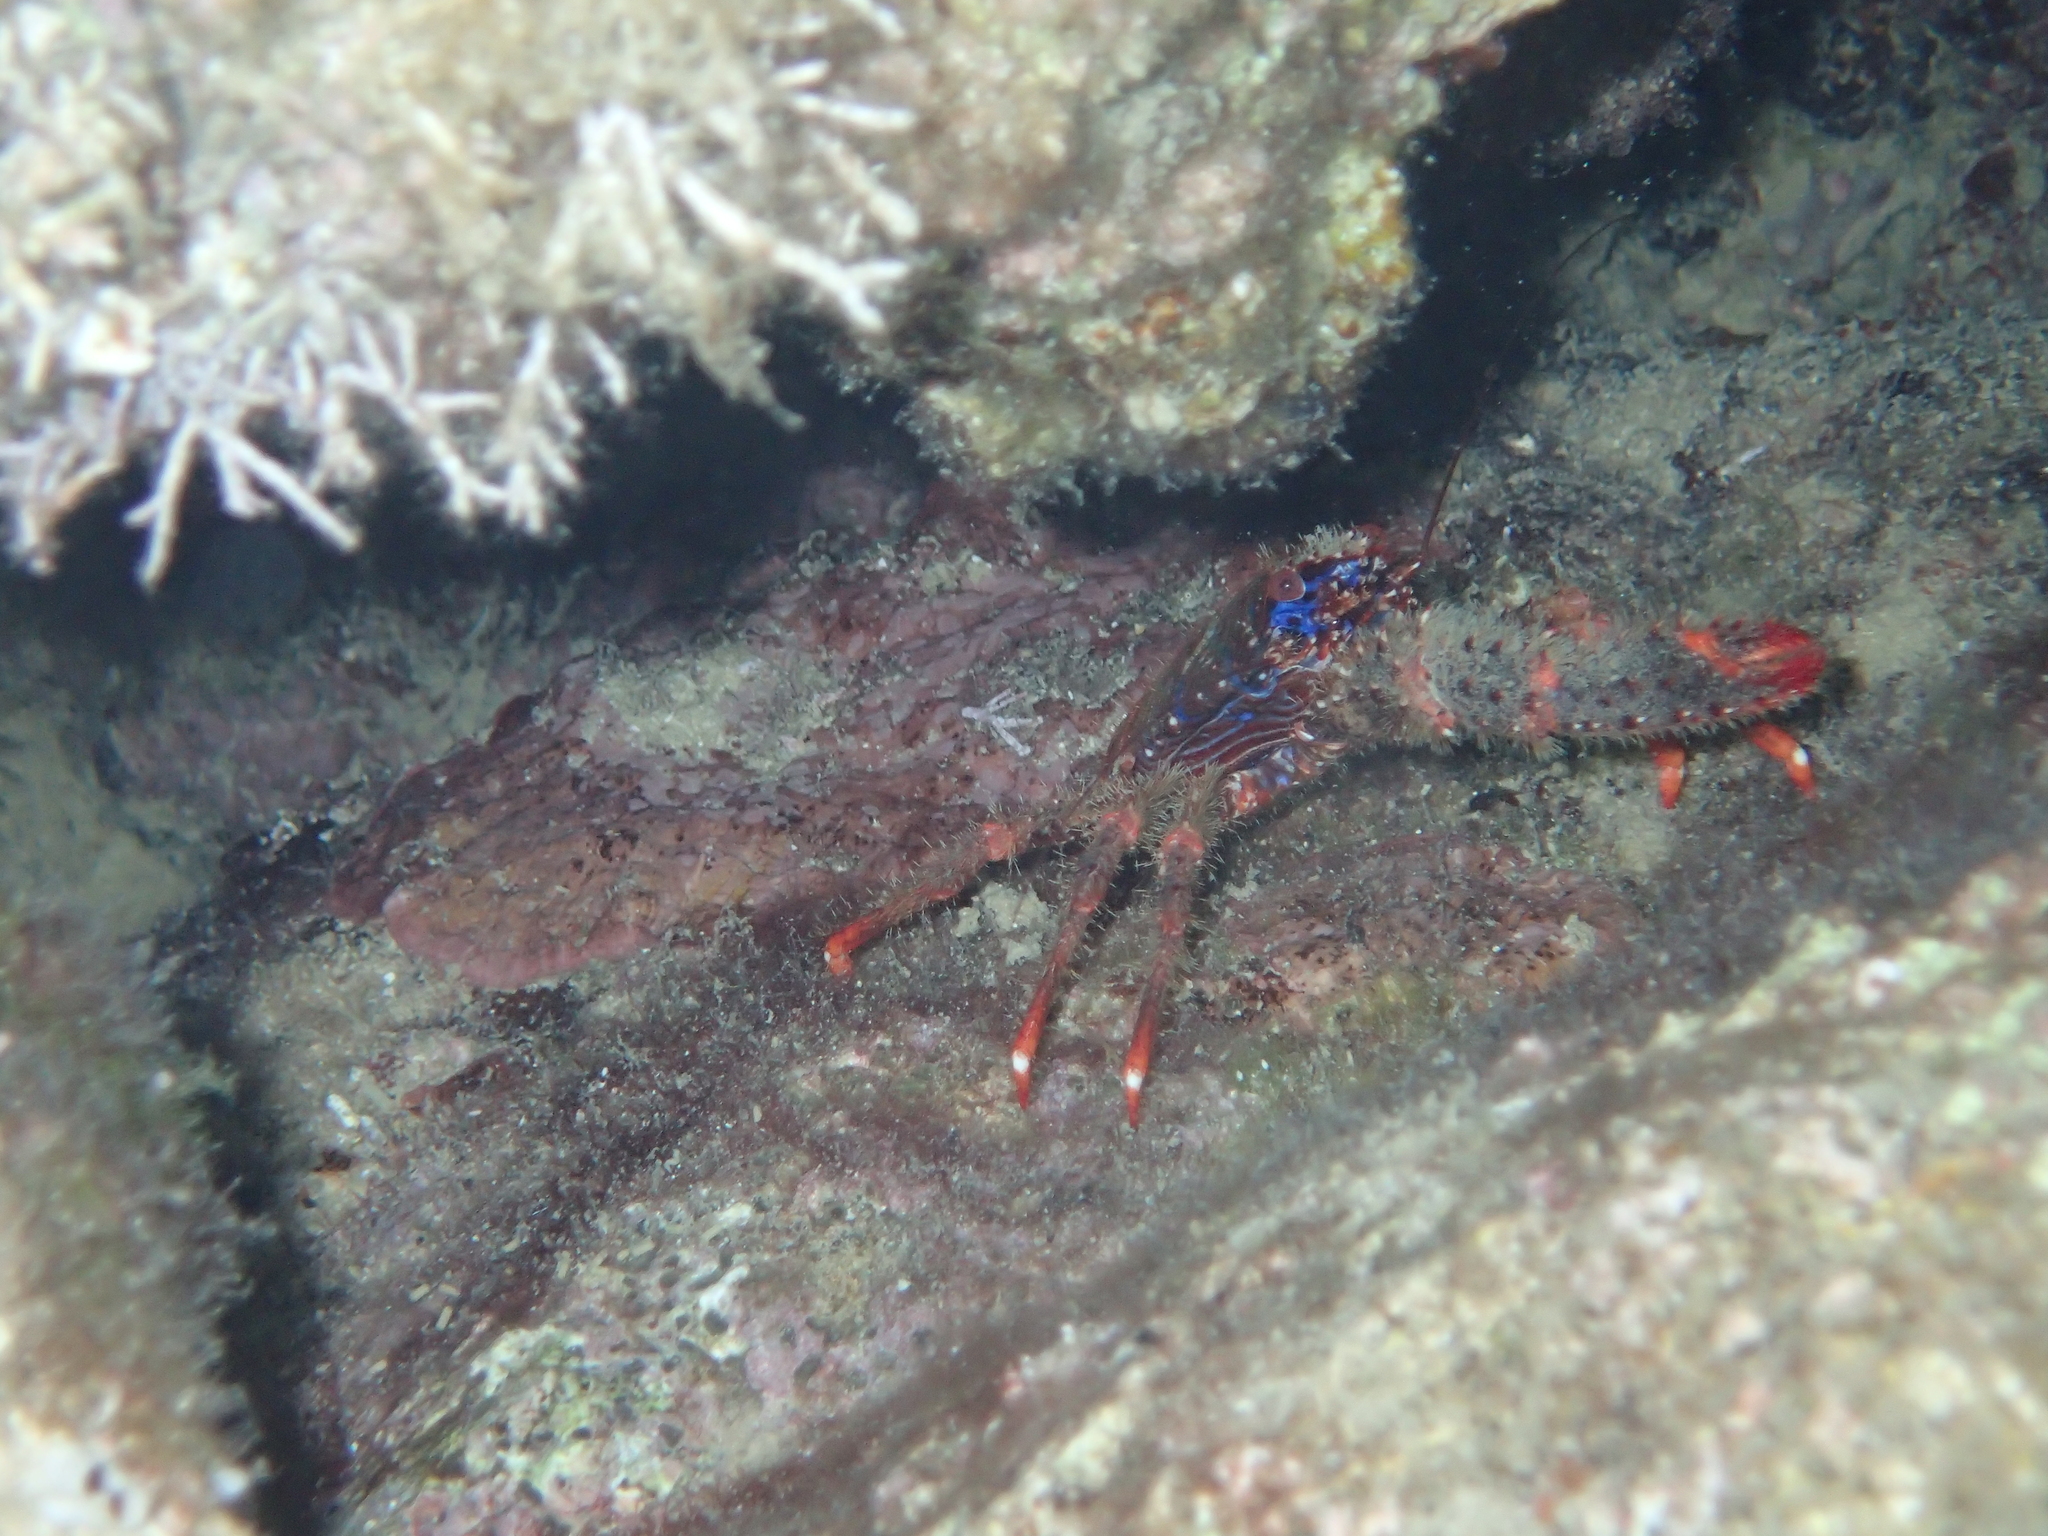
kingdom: Animalia
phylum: Arthropoda
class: Malacostraca
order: Decapoda
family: Galatheidae
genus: Galathea
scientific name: Galathea strigosa
